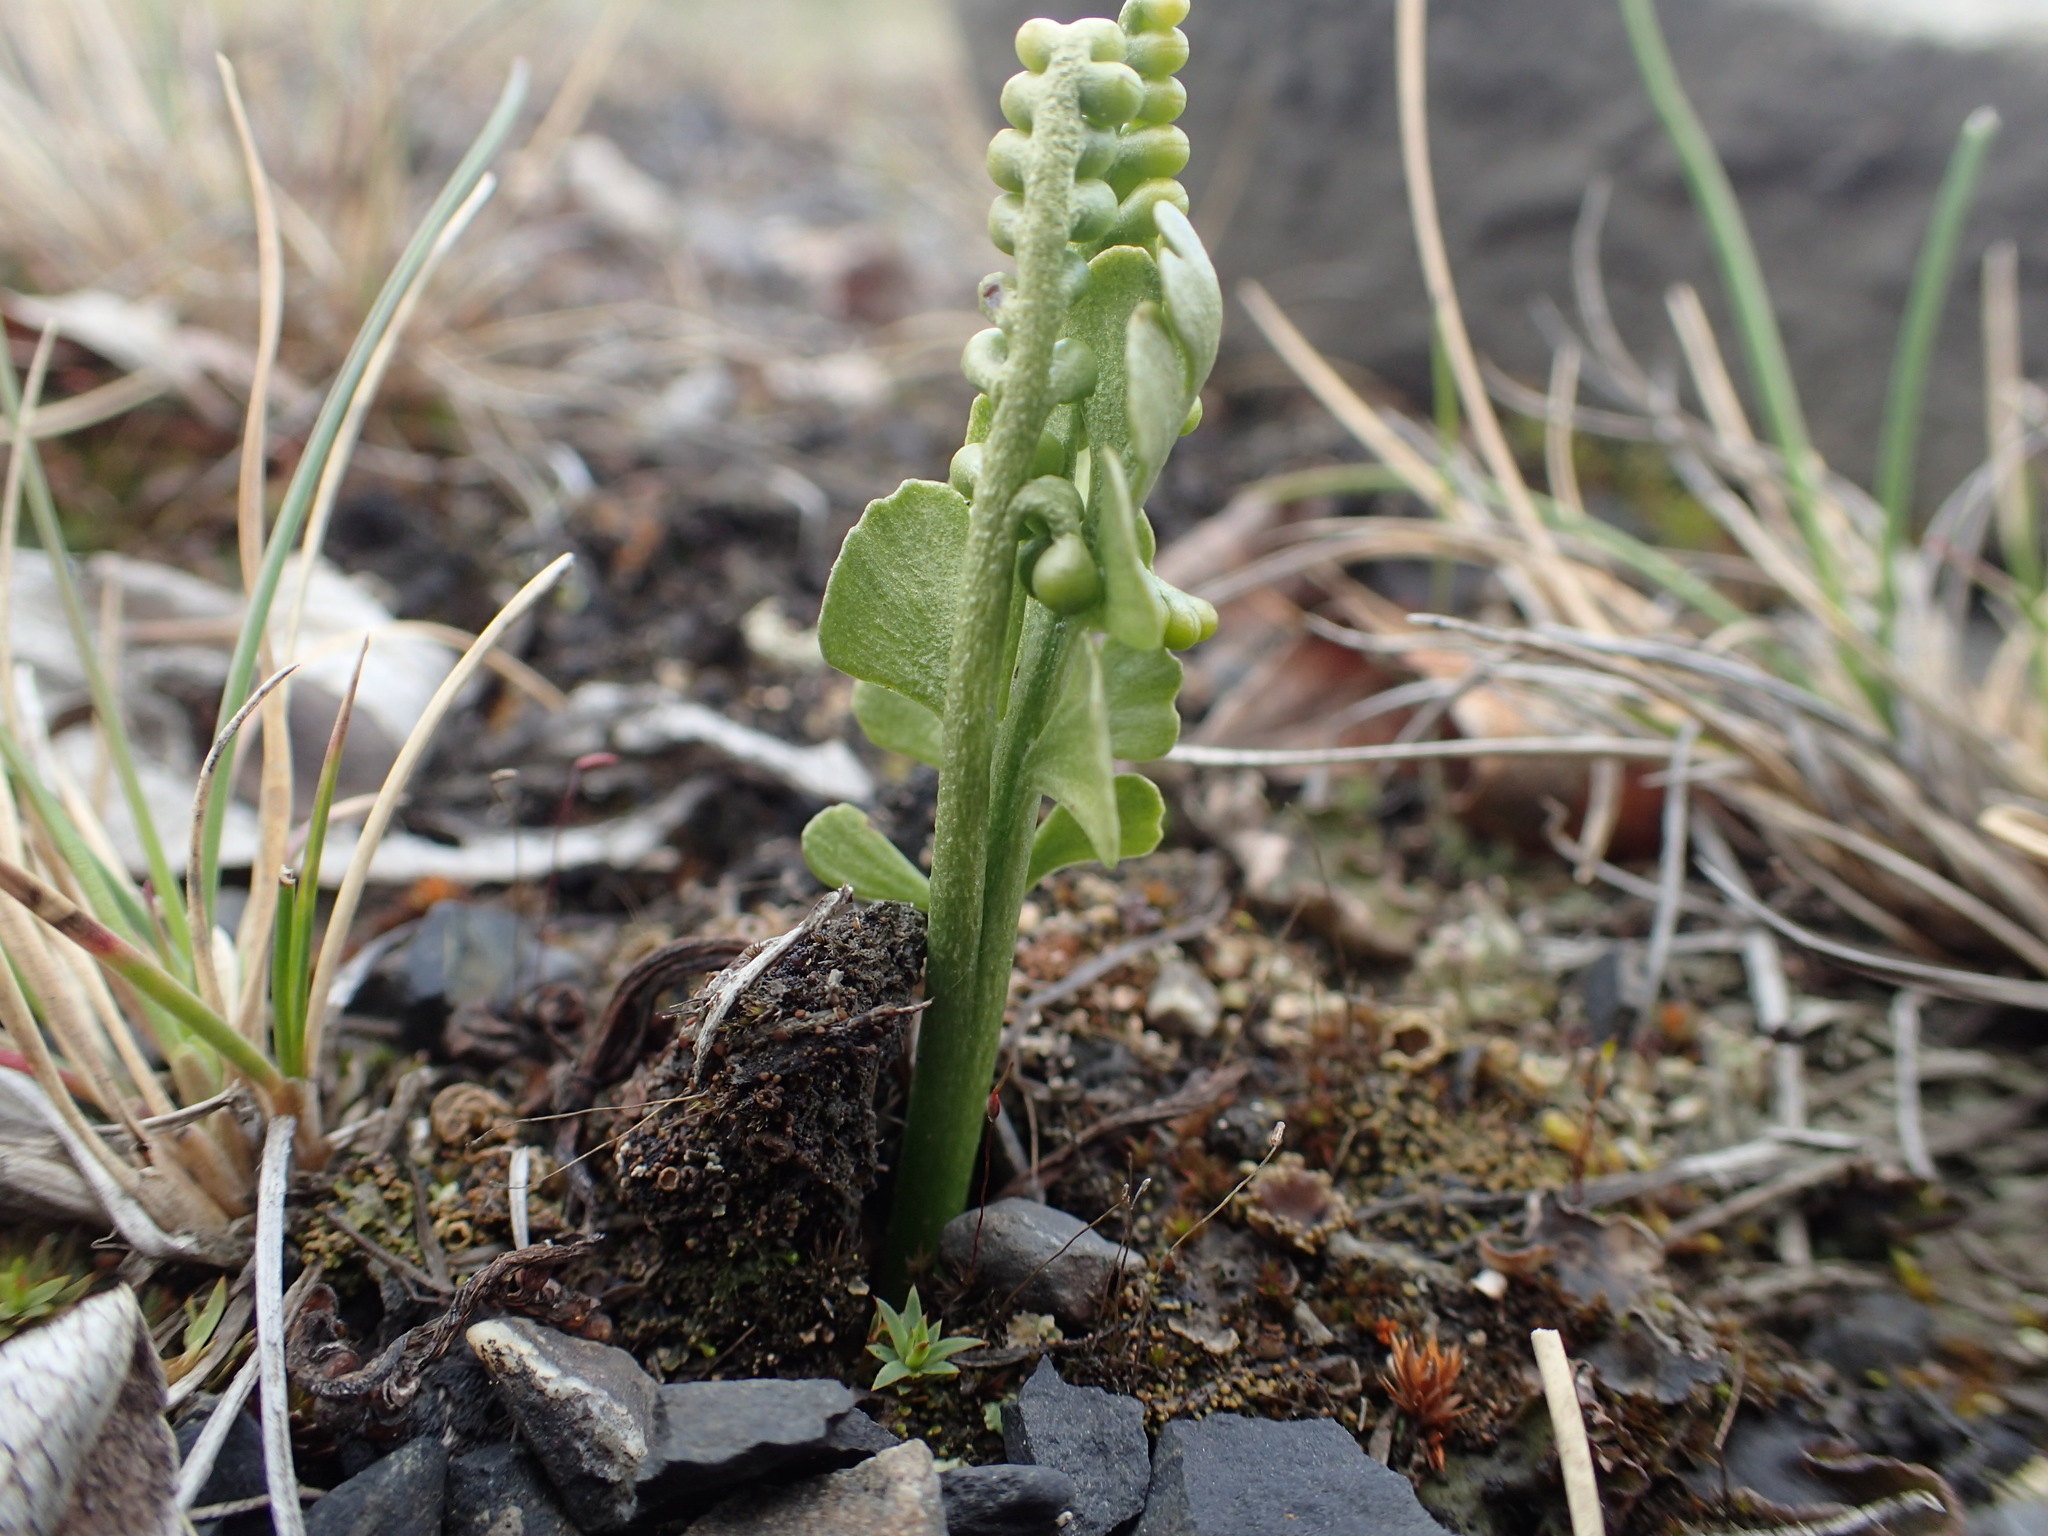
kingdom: Plantae
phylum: Tracheophyta
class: Polypodiopsida
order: Ophioglossales
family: Ophioglossaceae
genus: Botrychium
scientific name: Botrychium lunaria
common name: Moonwort
